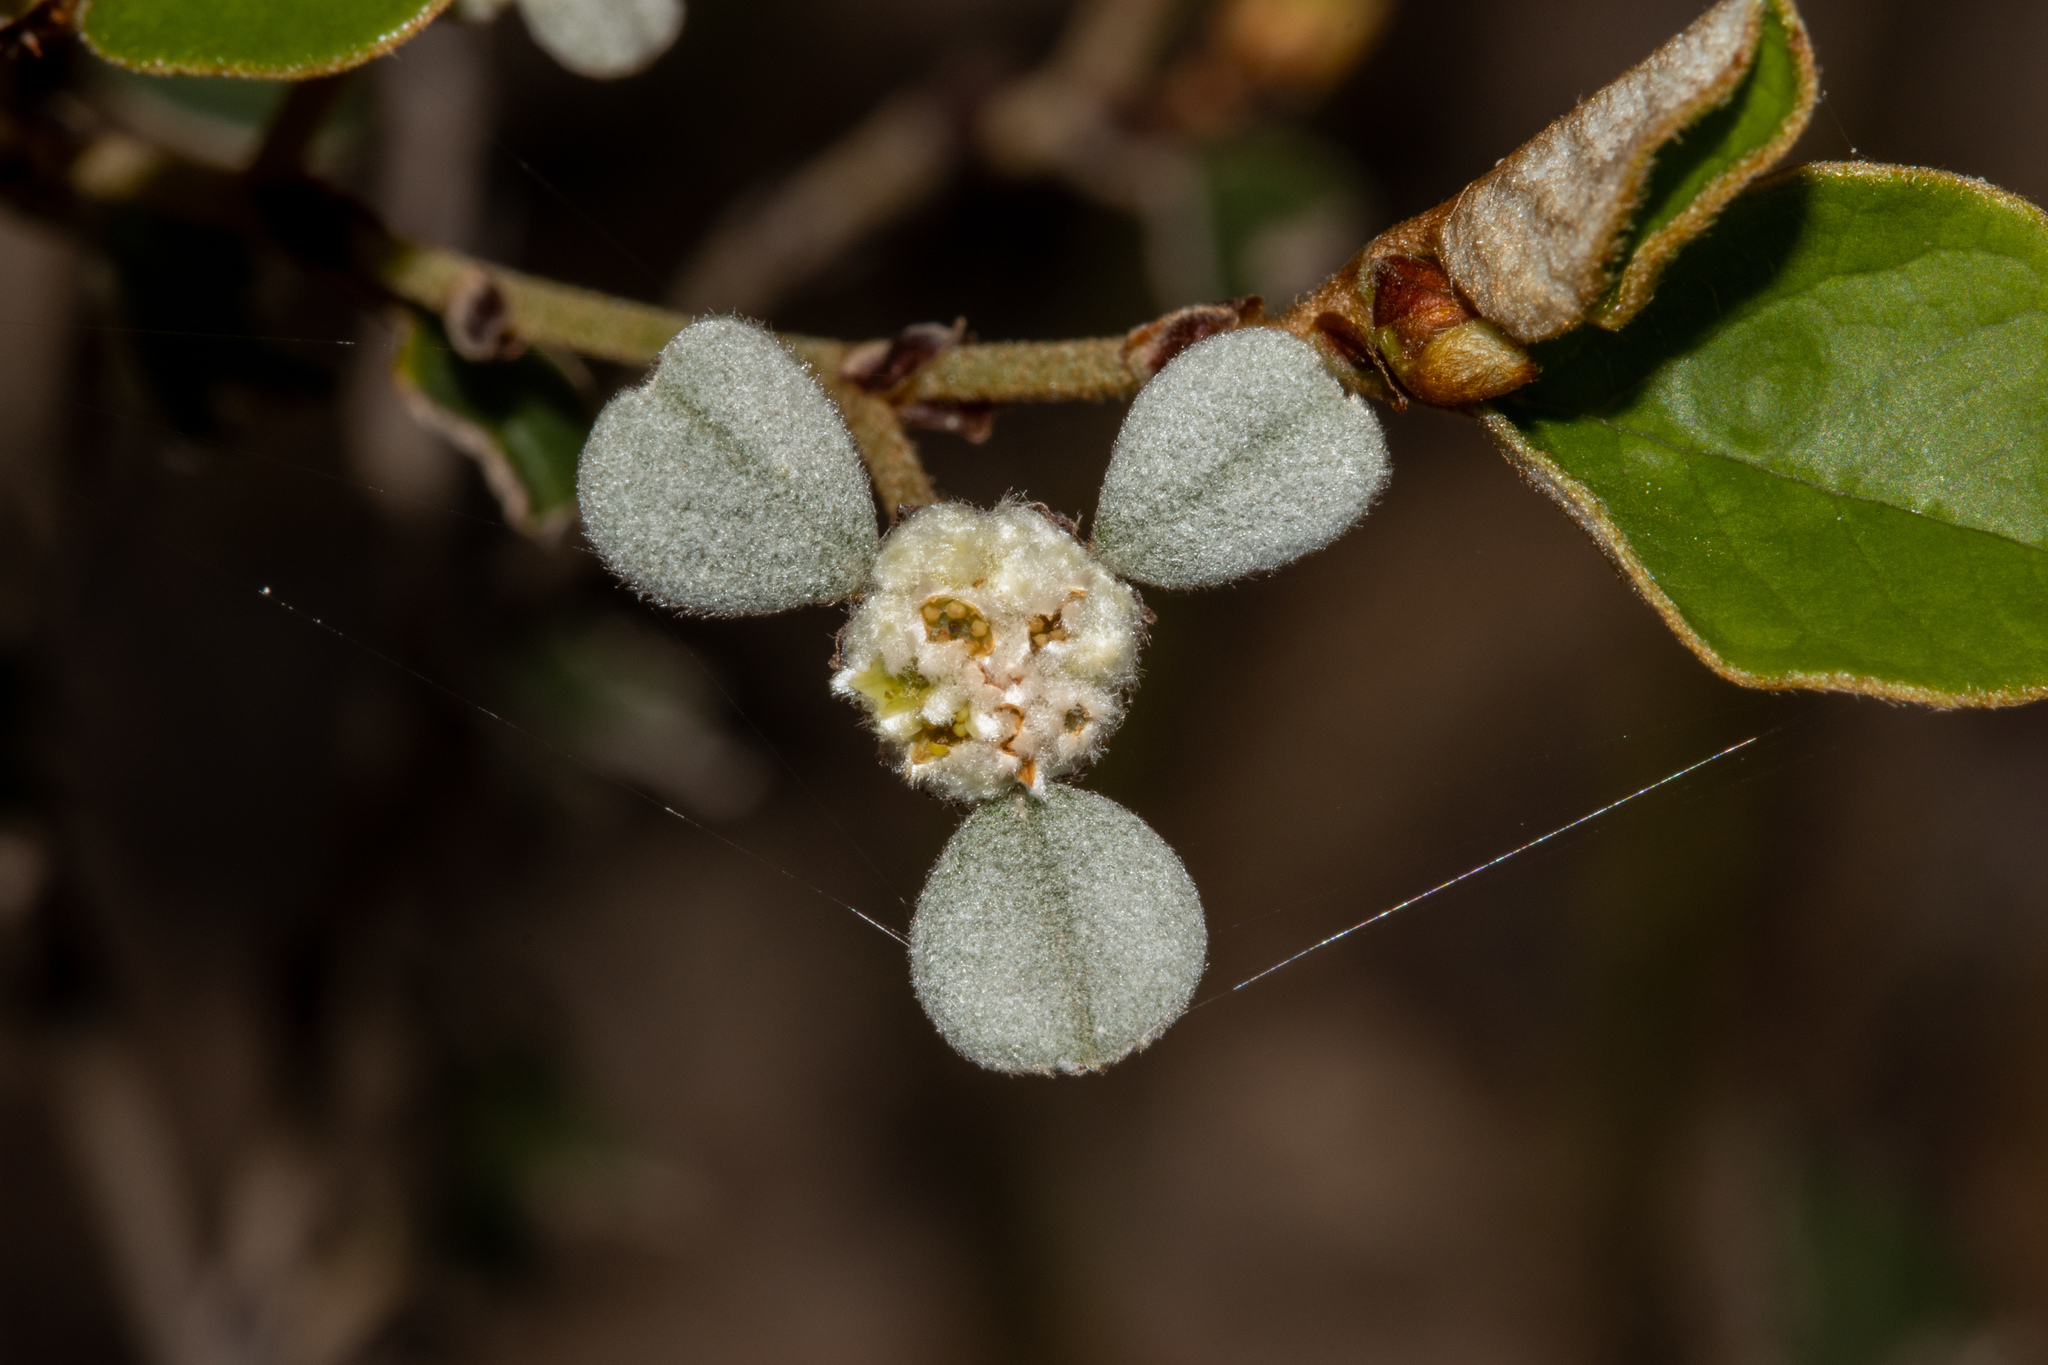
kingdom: Plantae
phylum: Tracheophyta
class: Magnoliopsida
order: Rosales
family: Rhamnaceae
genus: Spyridium
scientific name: Spyridium thymifolium
